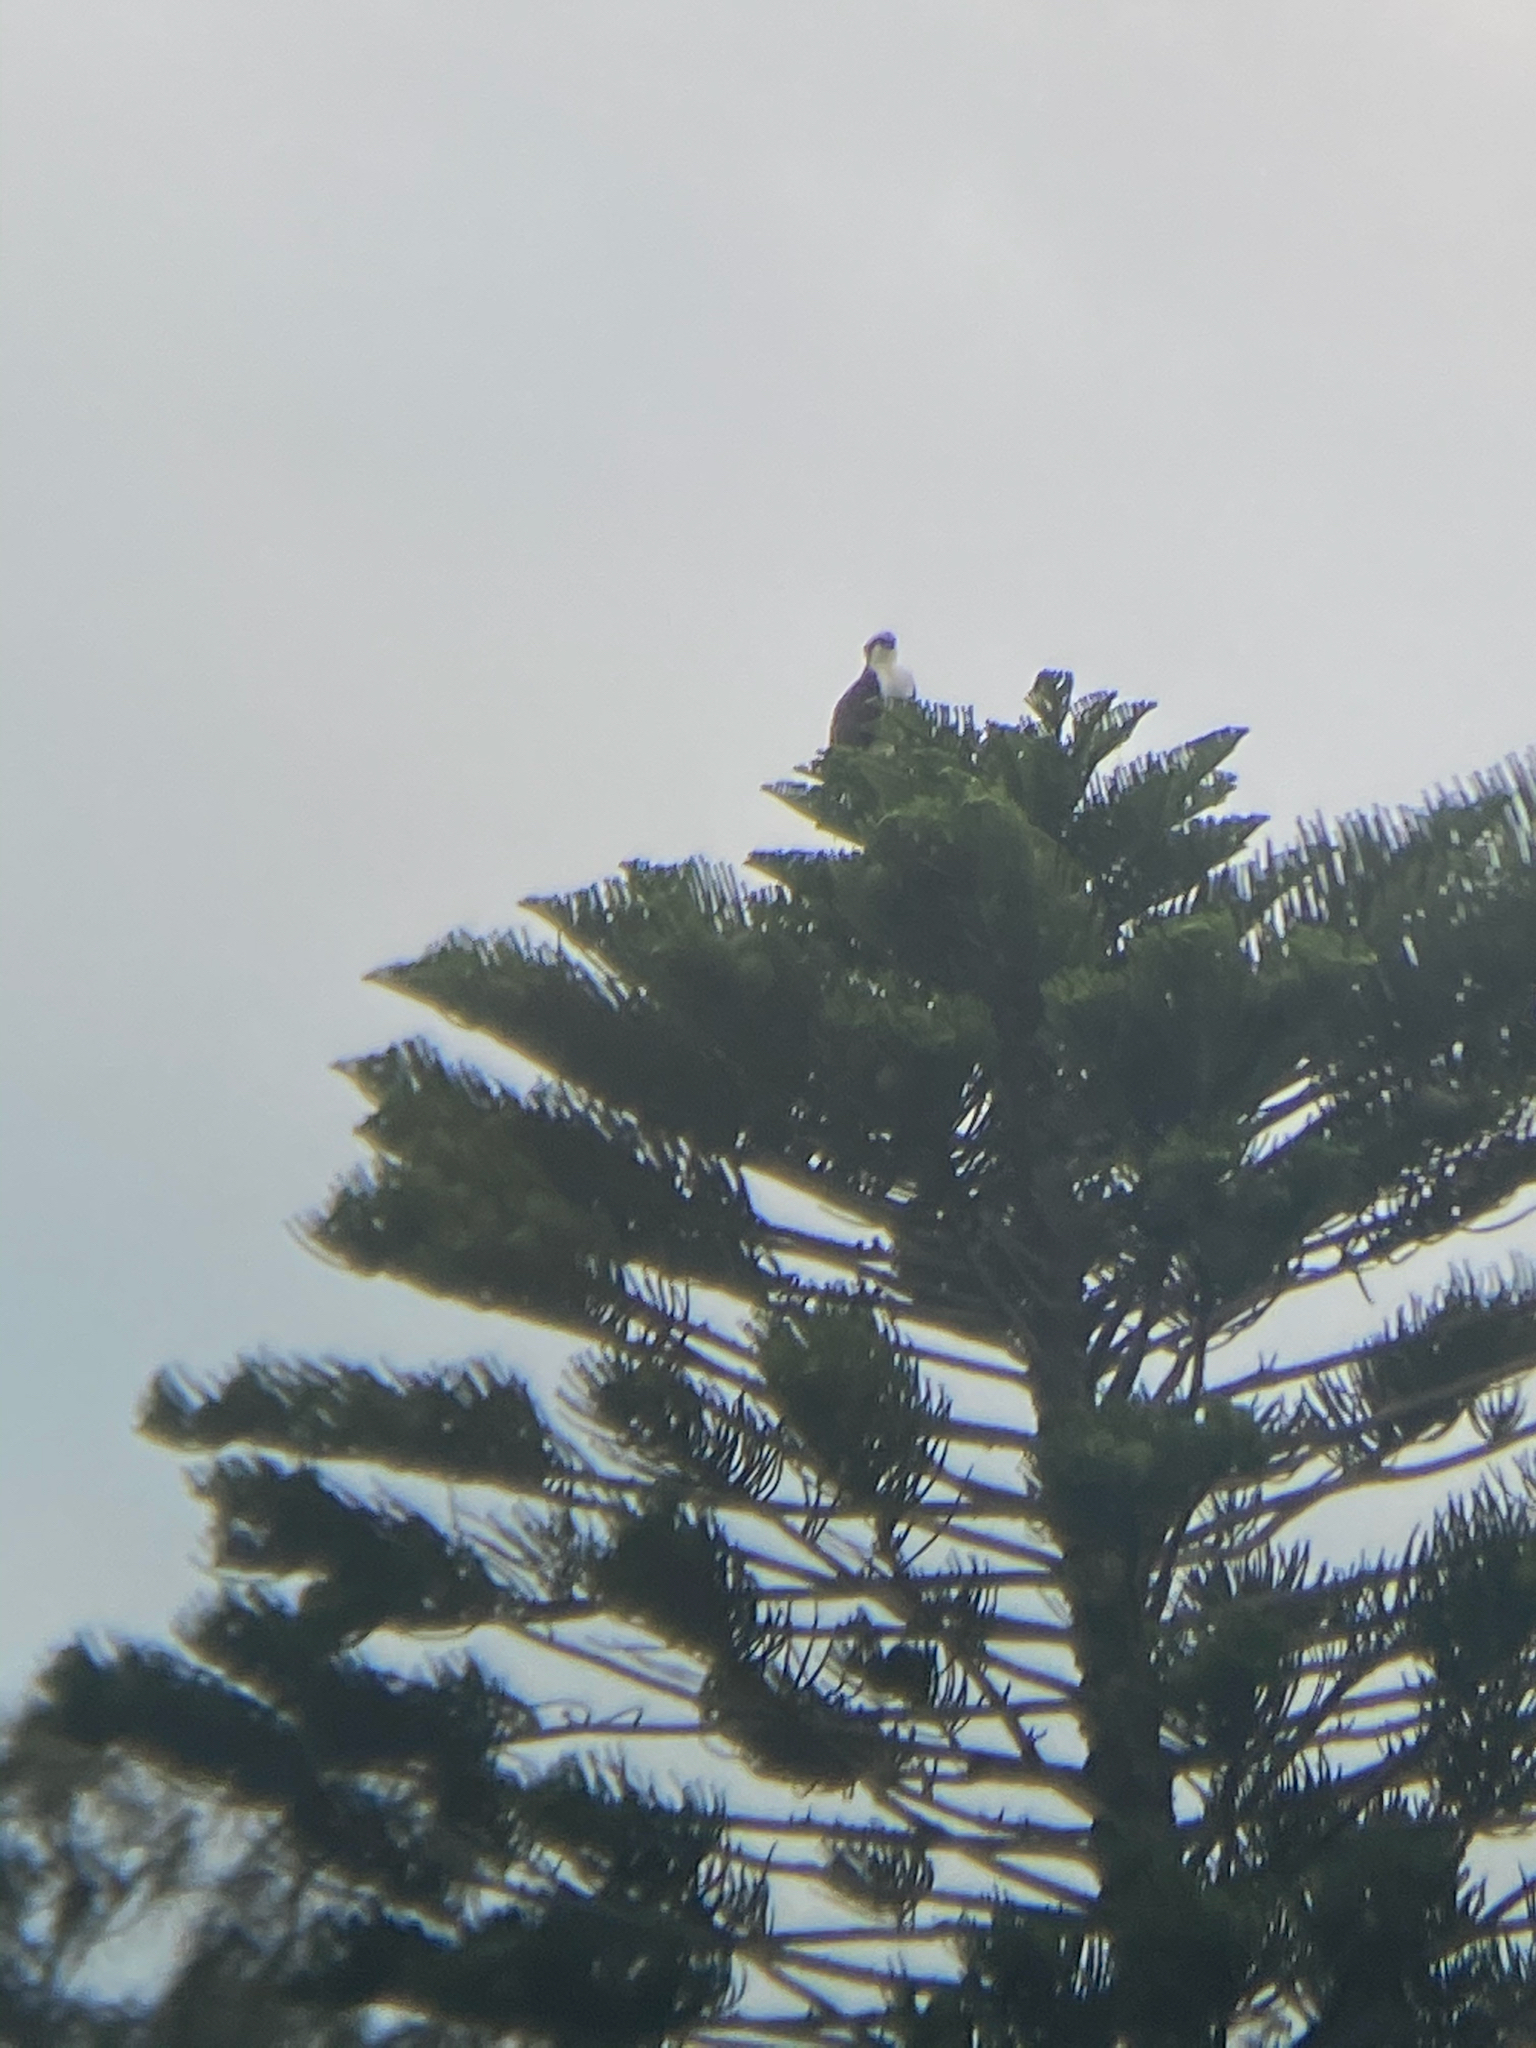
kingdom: Animalia
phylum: Chordata
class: Aves
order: Accipitriformes
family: Pandionidae
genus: Pandion
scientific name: Pandion haliaetus
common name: Osprey
